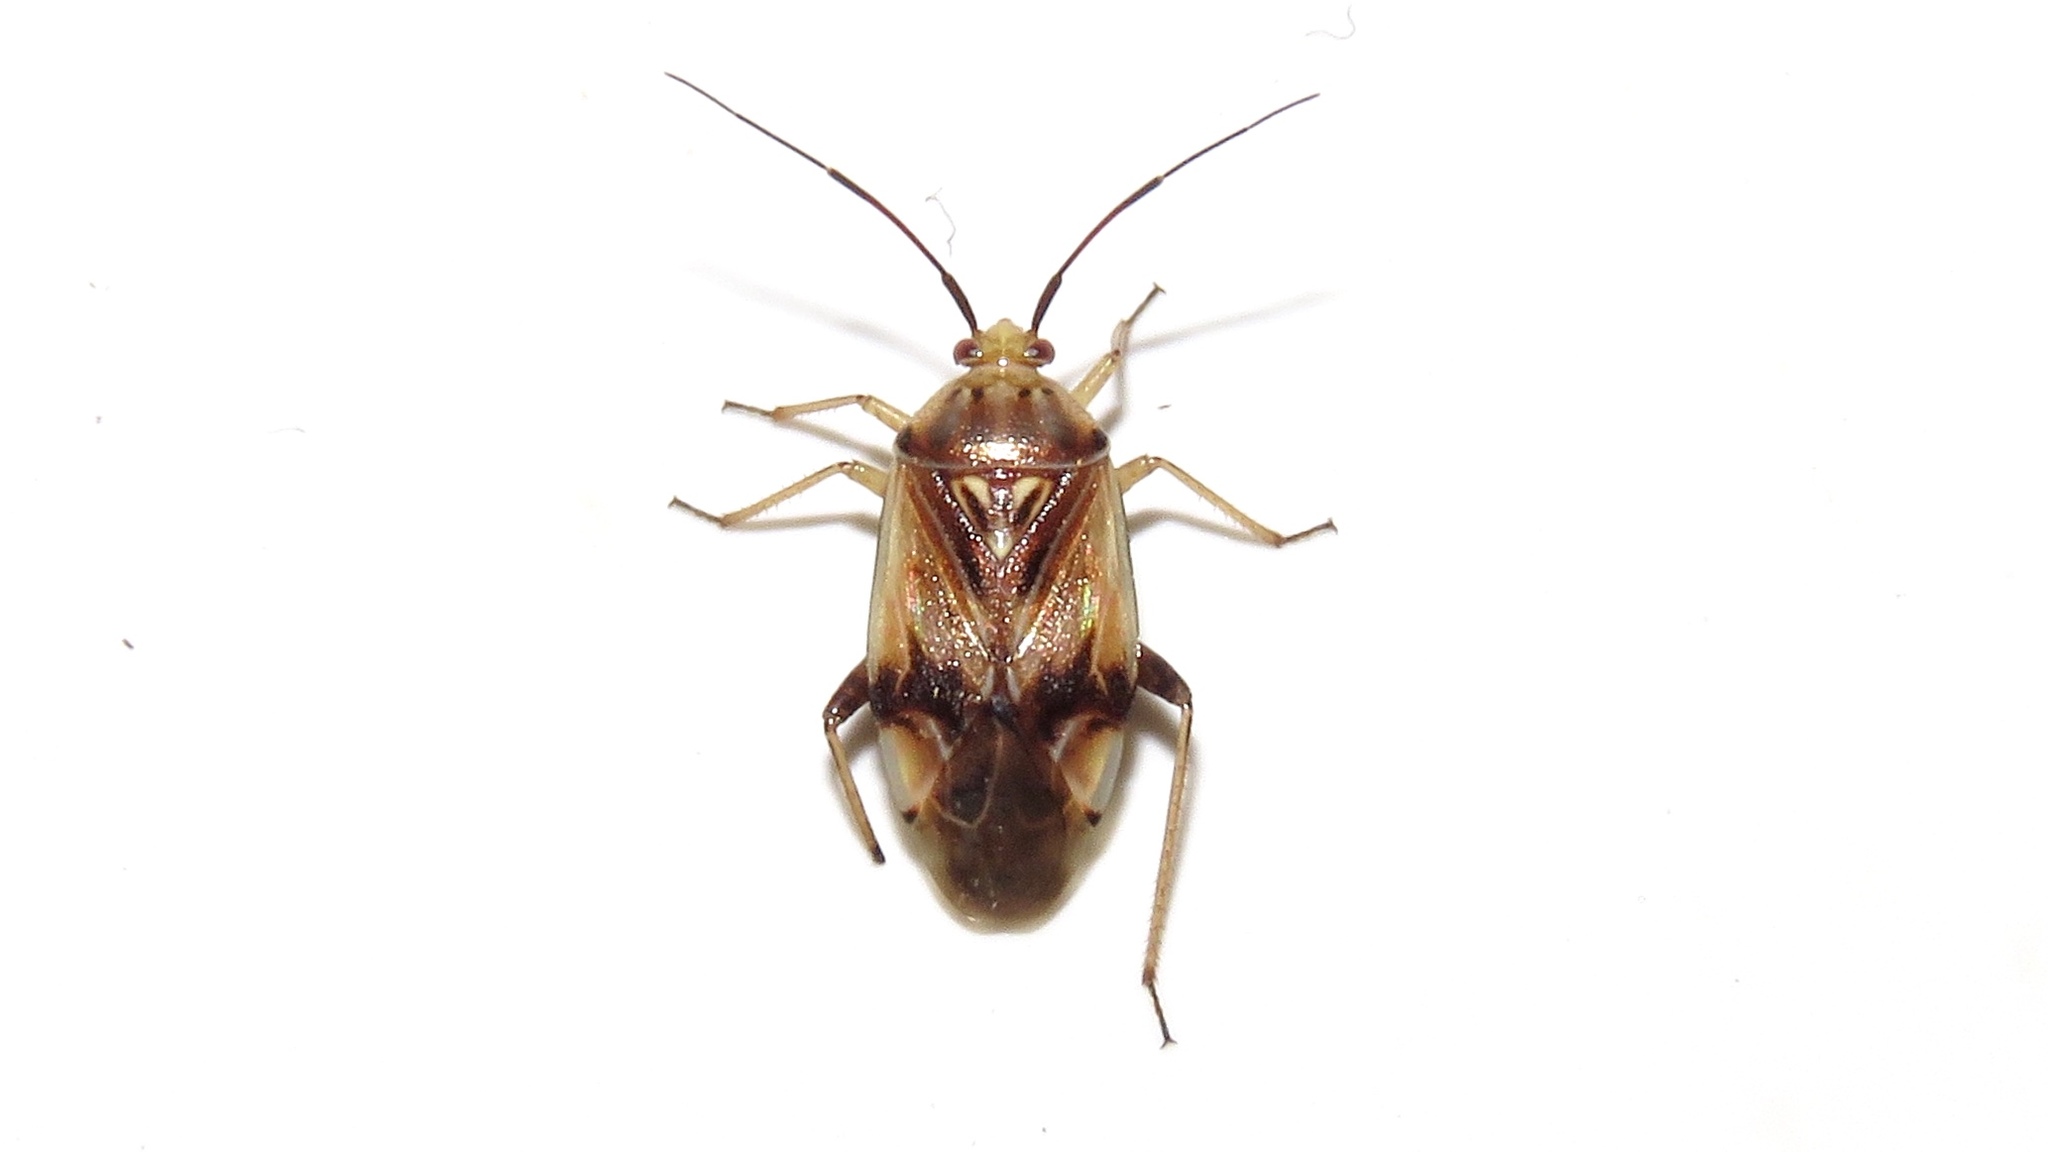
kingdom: Animalia
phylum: Arthropoda
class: Insecta
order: Hemiptera
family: Miridae
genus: Lygus
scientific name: Lygus lineolaris
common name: North american tarnished plant bug
